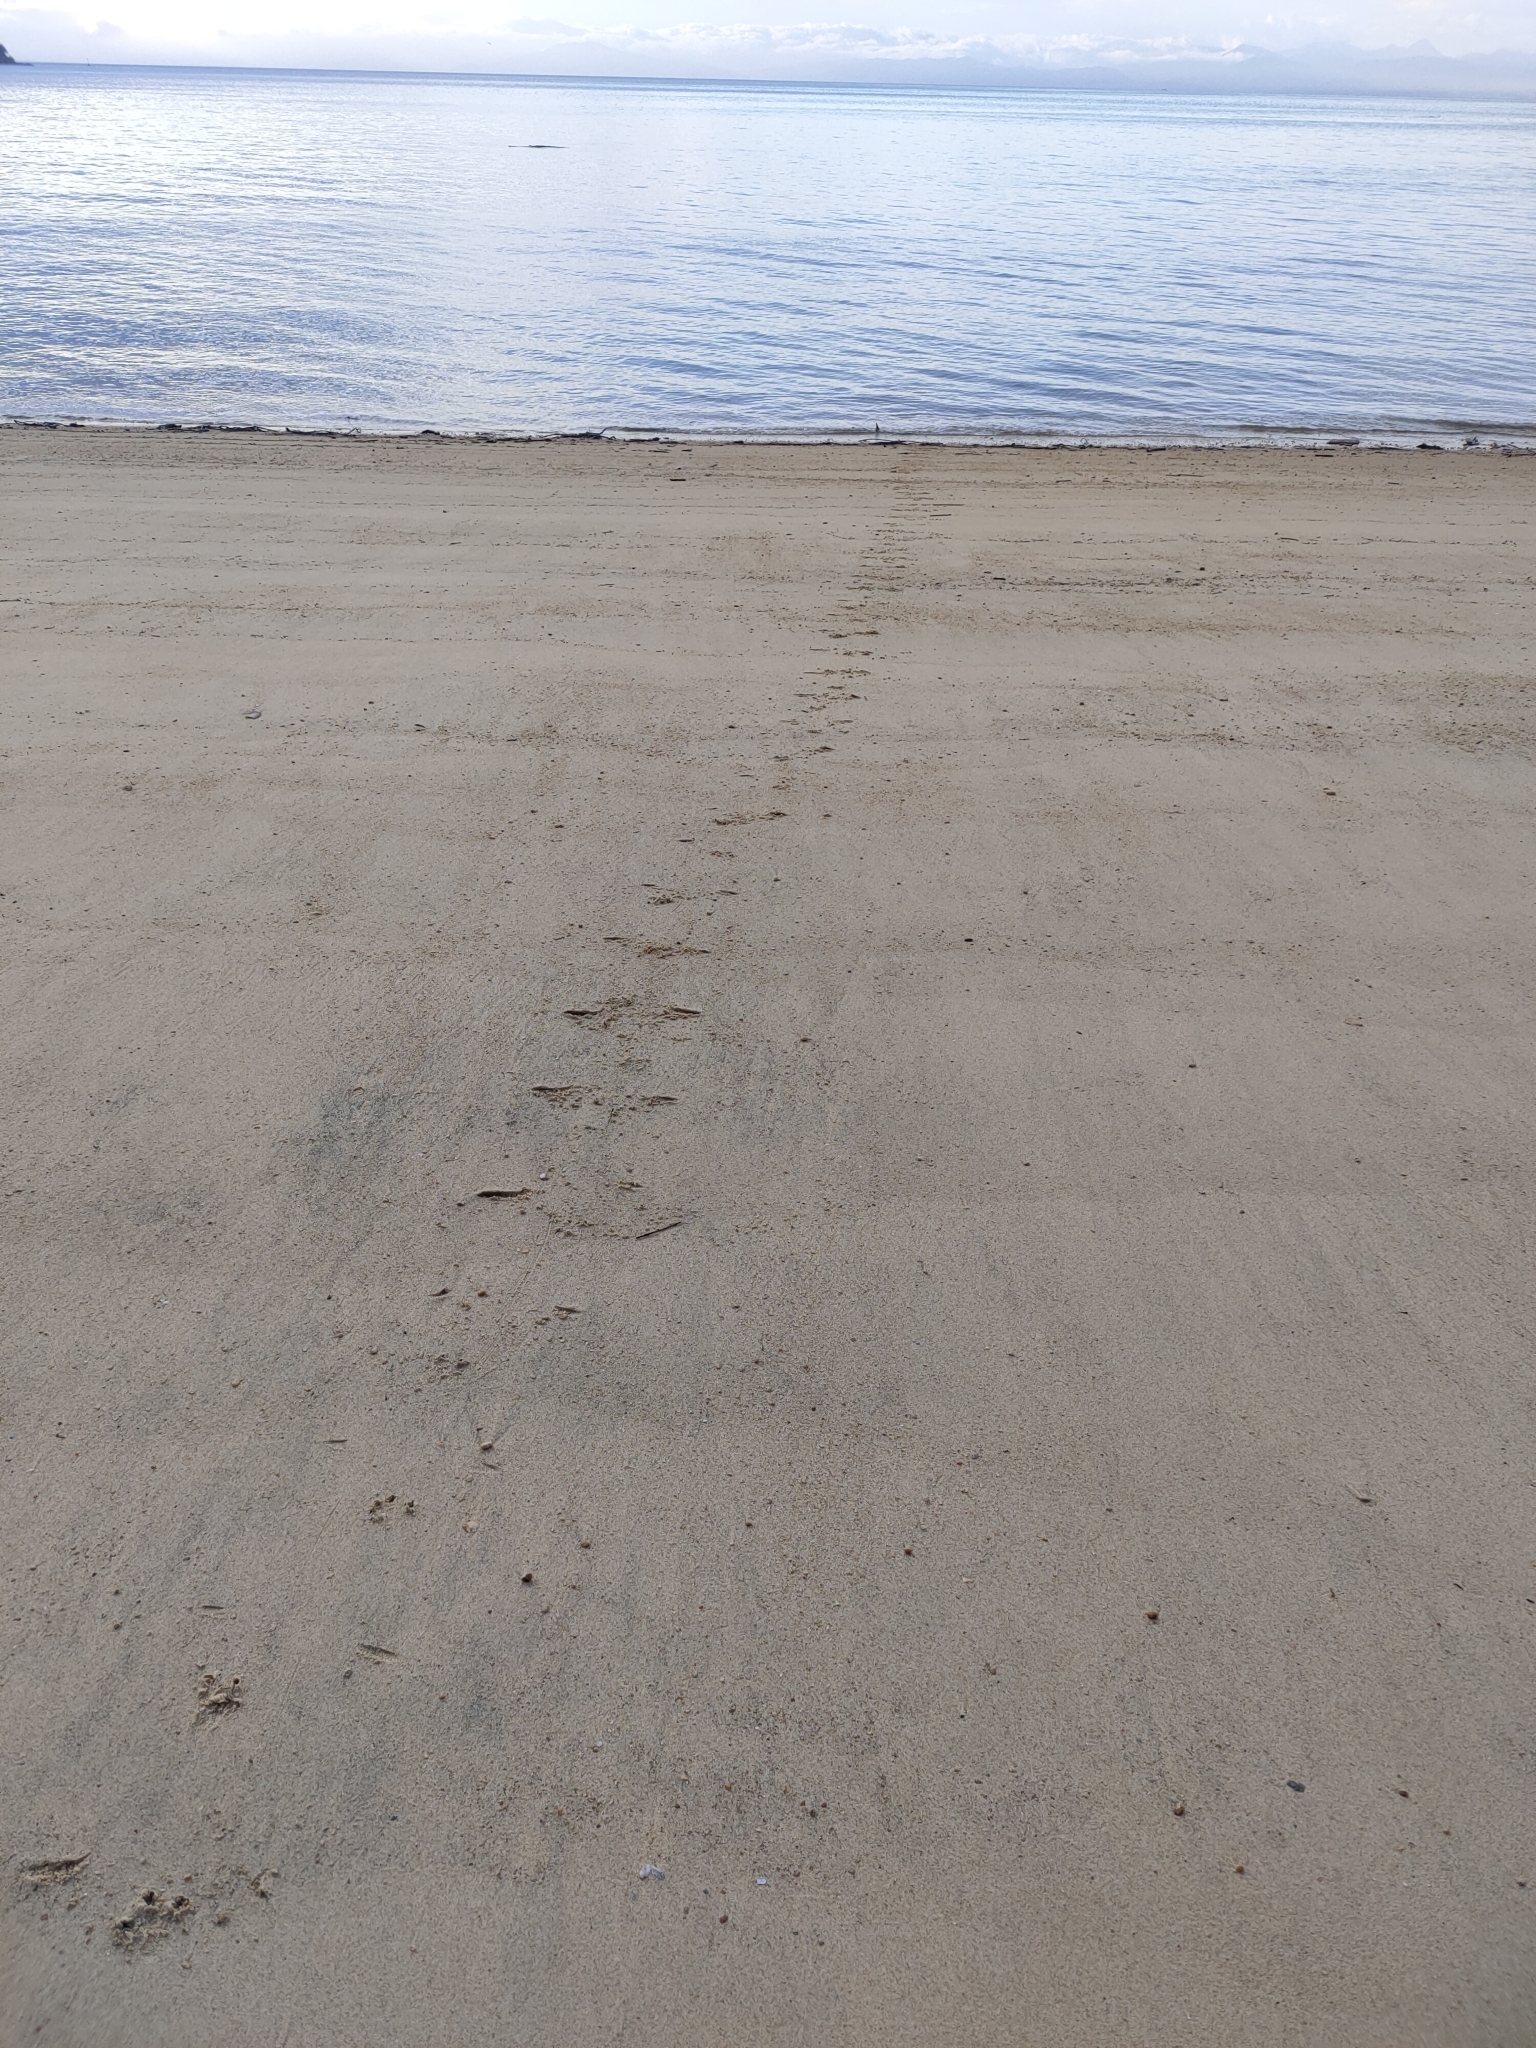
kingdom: Animalia
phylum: Chordata
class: Aves
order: Sphenisciformes
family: Spheniscidae
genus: Eudyptula
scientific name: Eudyptula minor
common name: Little penguin
